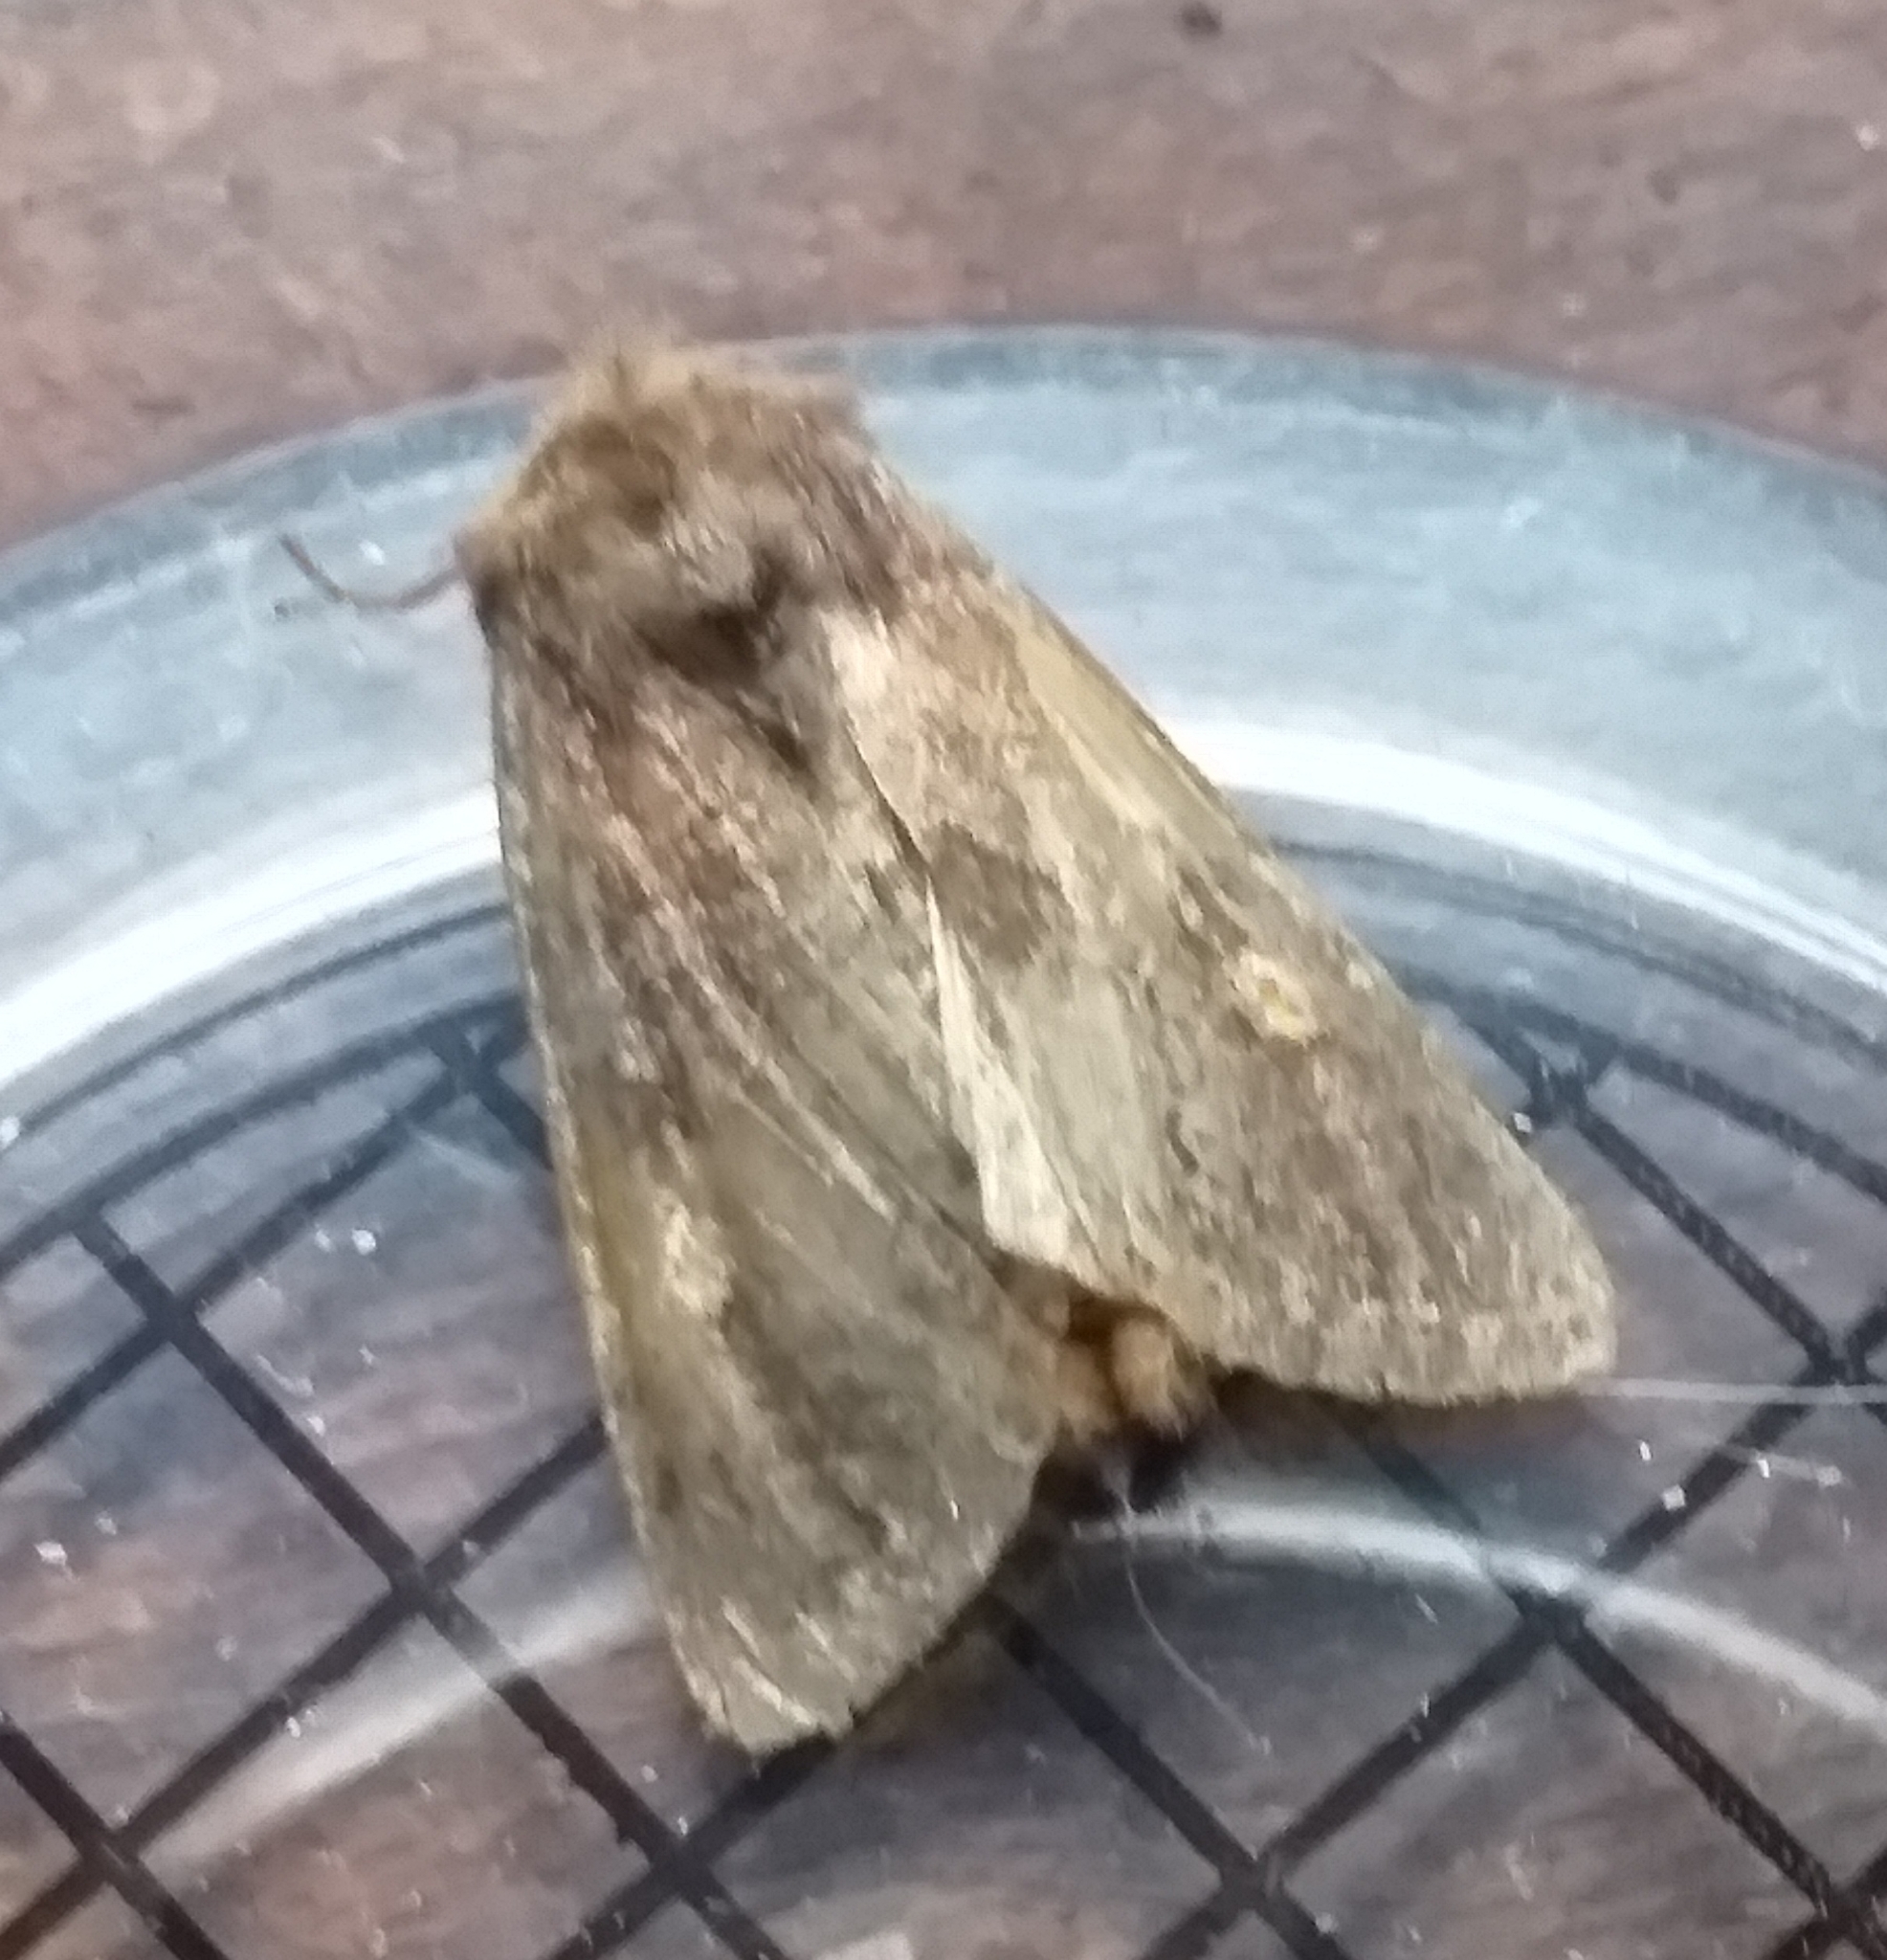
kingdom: Animalia
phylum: Arthropoda
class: Insecta
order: Lepidoptera
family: Noctuidae
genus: Lacanobia
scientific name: Lacanobia oleracea
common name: Bright-line brown-eye
